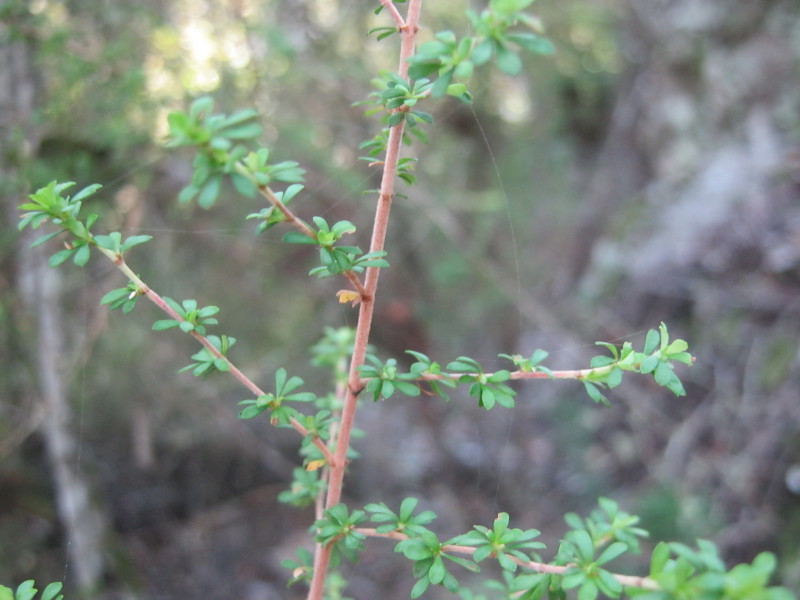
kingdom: Plantae
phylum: Tracheophyta
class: Magnoliopsida
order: Rosales
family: Rosaceae
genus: Cliffortia
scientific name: Cliffortia serpyllifolia
